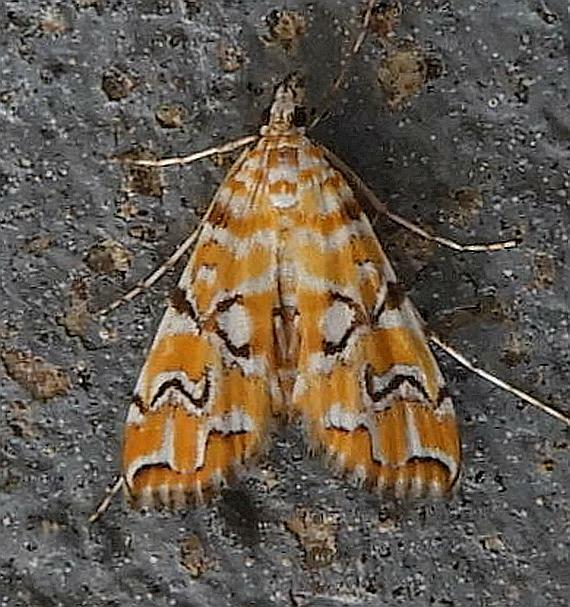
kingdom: Animalia
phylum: Arthropoda
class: Insecta
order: Lepidoptera
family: Crambidae
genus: Elophila
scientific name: Elophila icciusalis
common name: Pondside pyralid moth
